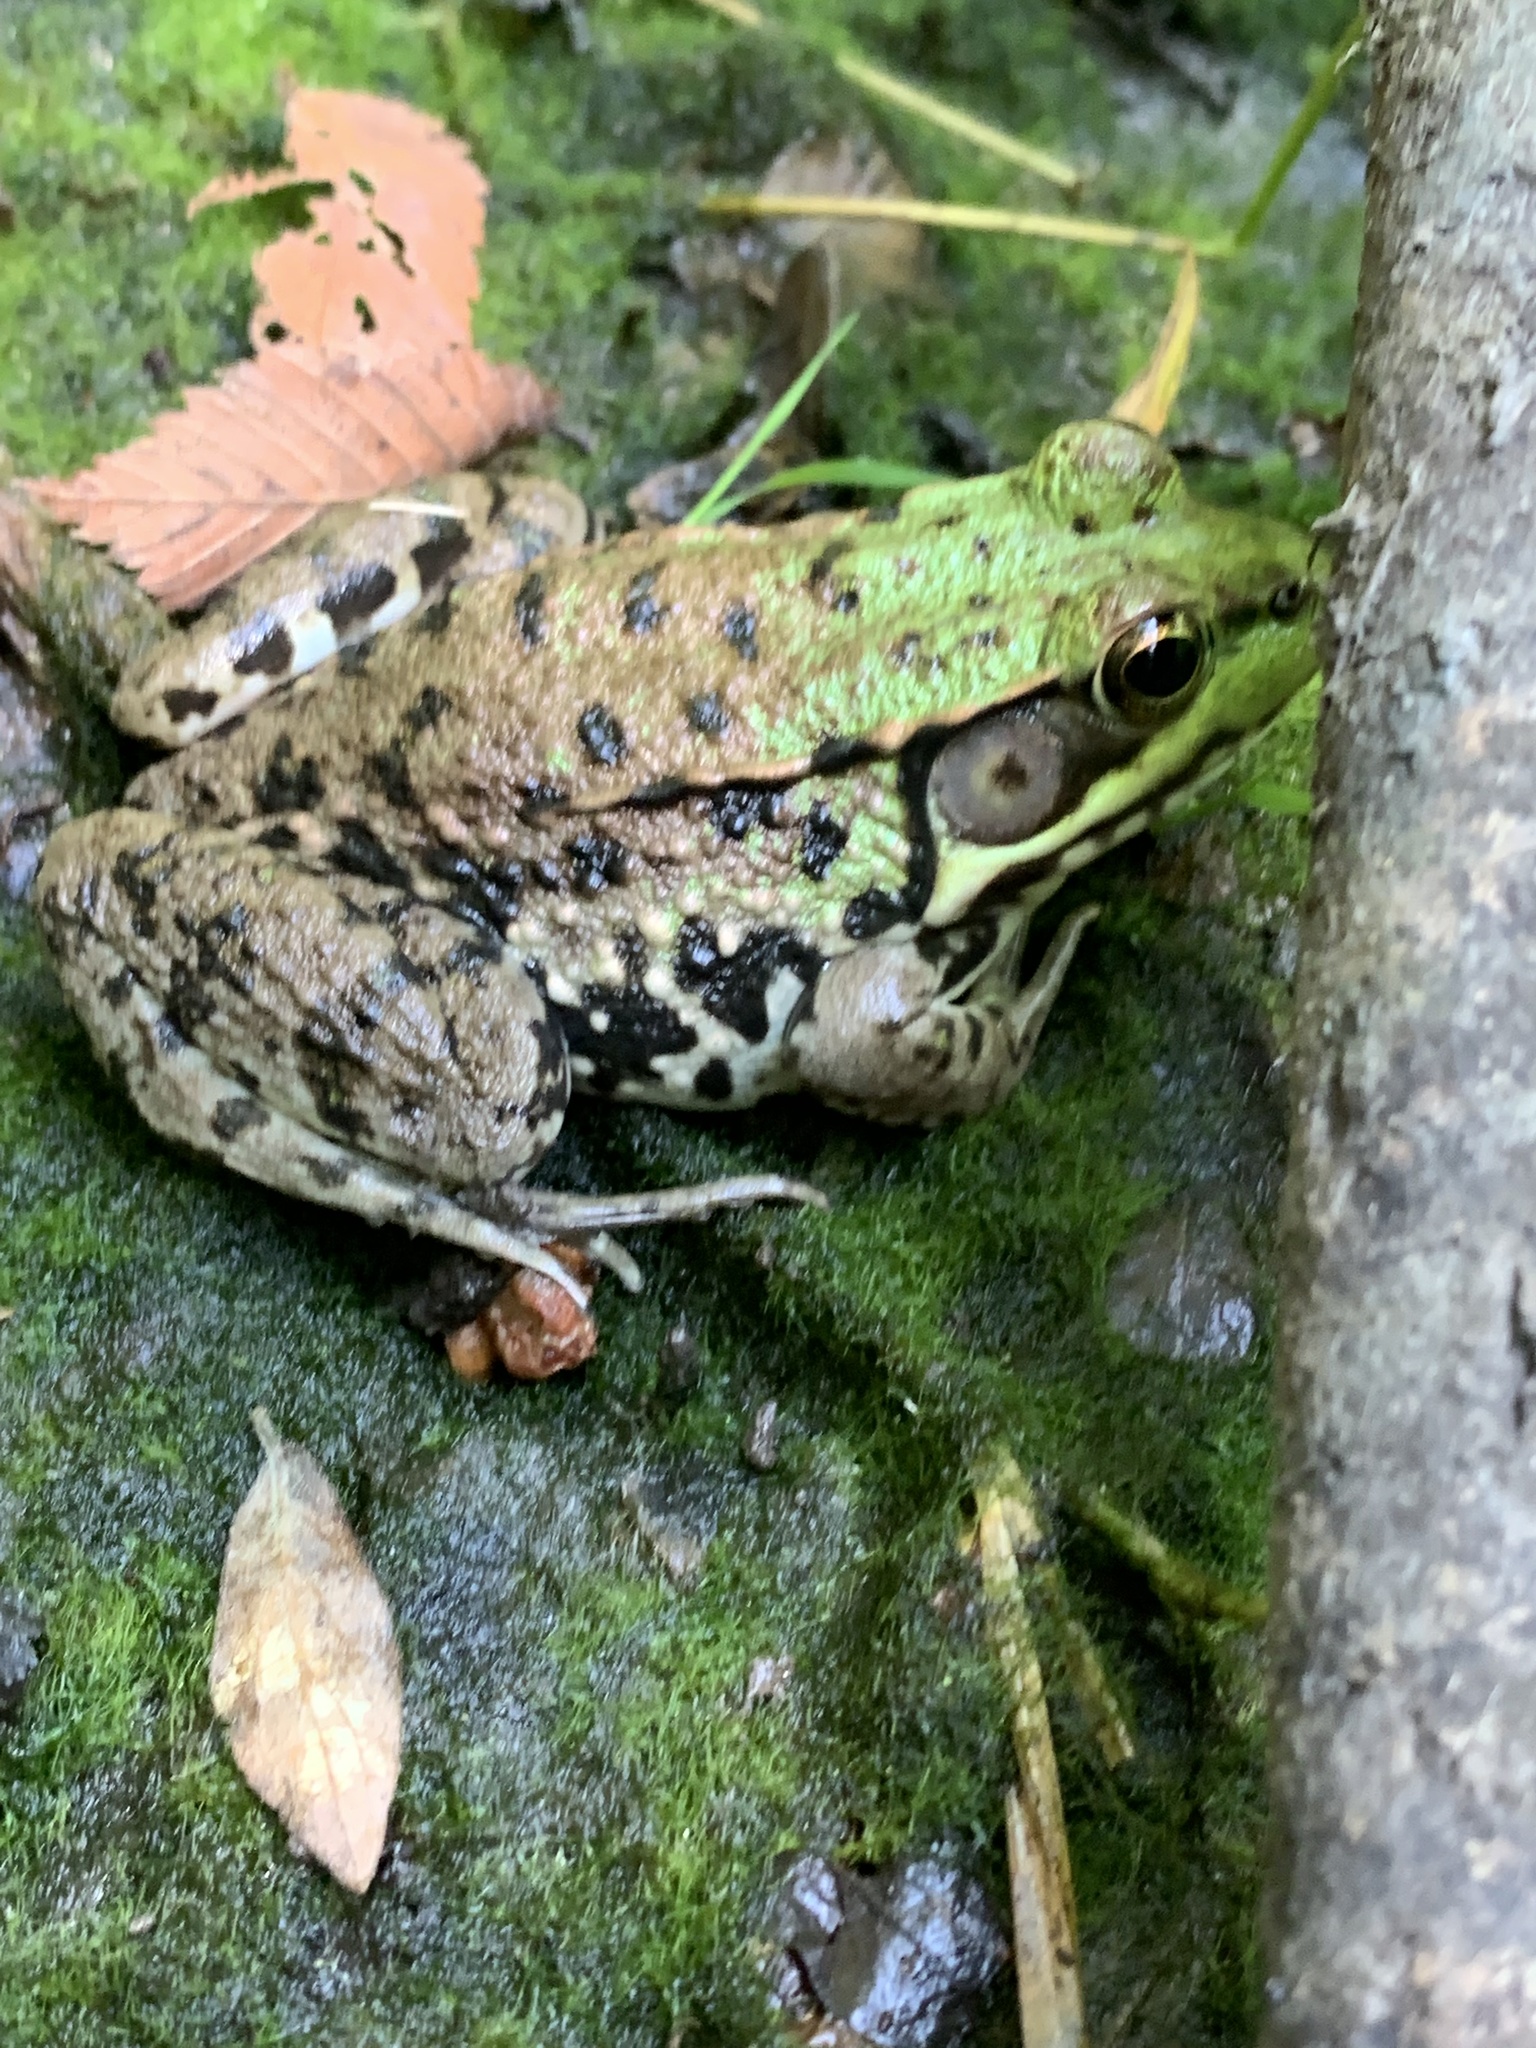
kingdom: Animalia
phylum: Chordata
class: Amphibia
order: Anura
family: Ranidae
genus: Lithobates
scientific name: Lithobates clamitans
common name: Green frog
